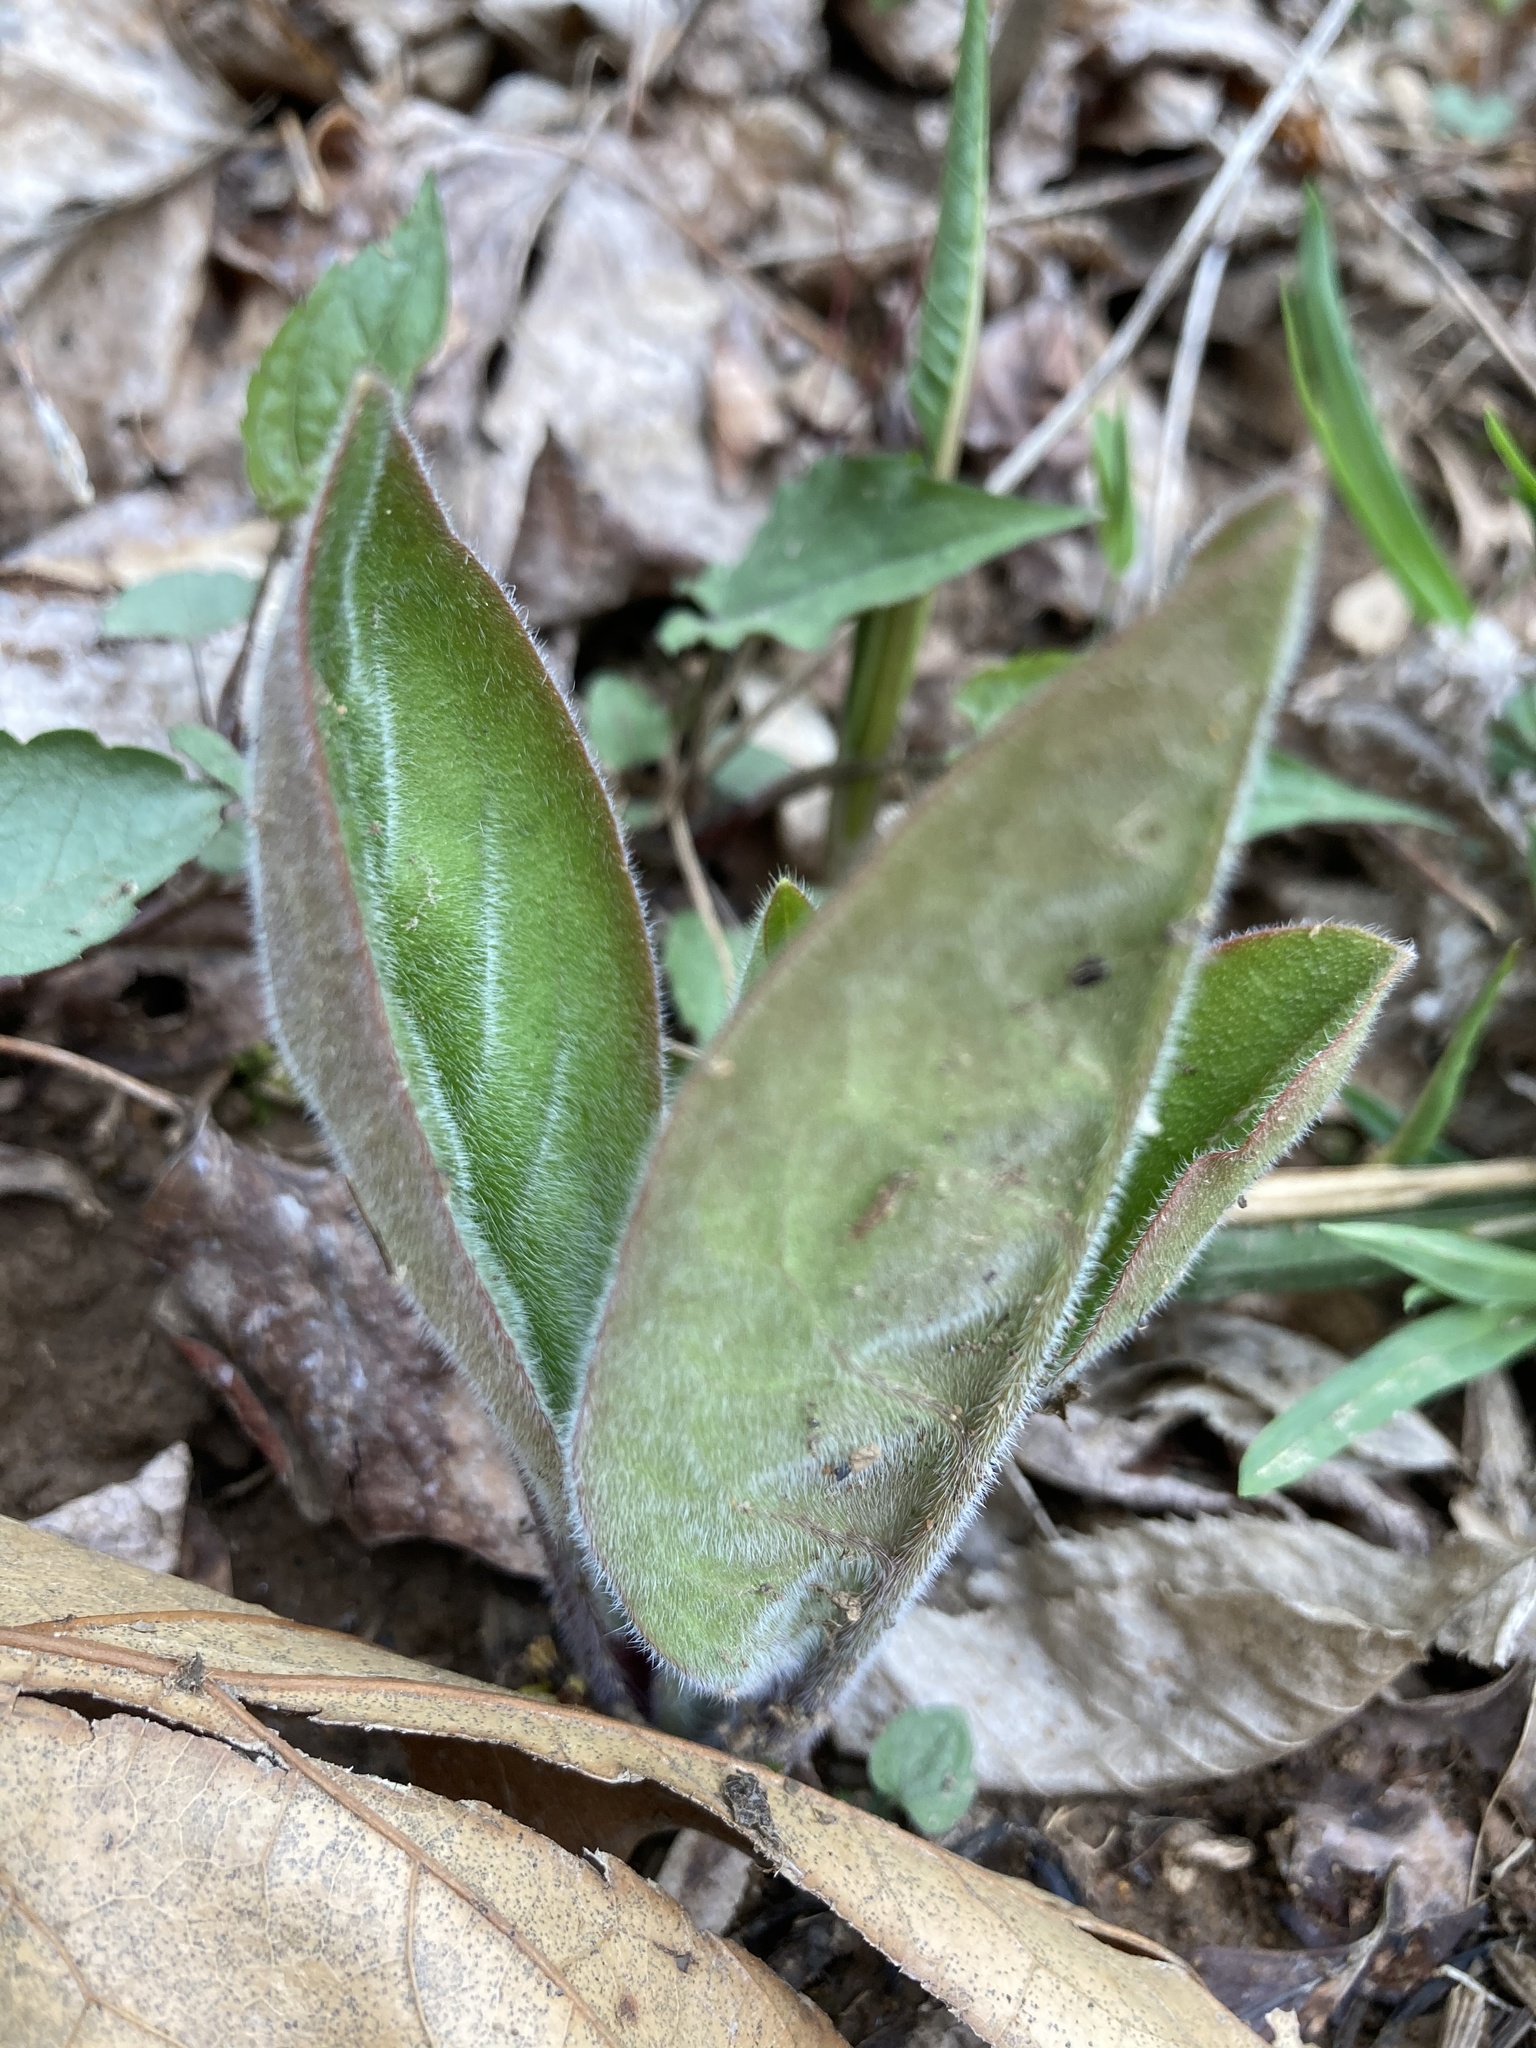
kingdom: Plantae
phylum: Tracheophyta
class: Magnoliopsida
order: Boraginales
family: Boraginaceae
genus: Andersonglossum
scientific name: Andersonglossum virginianum
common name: Wild comfrey
